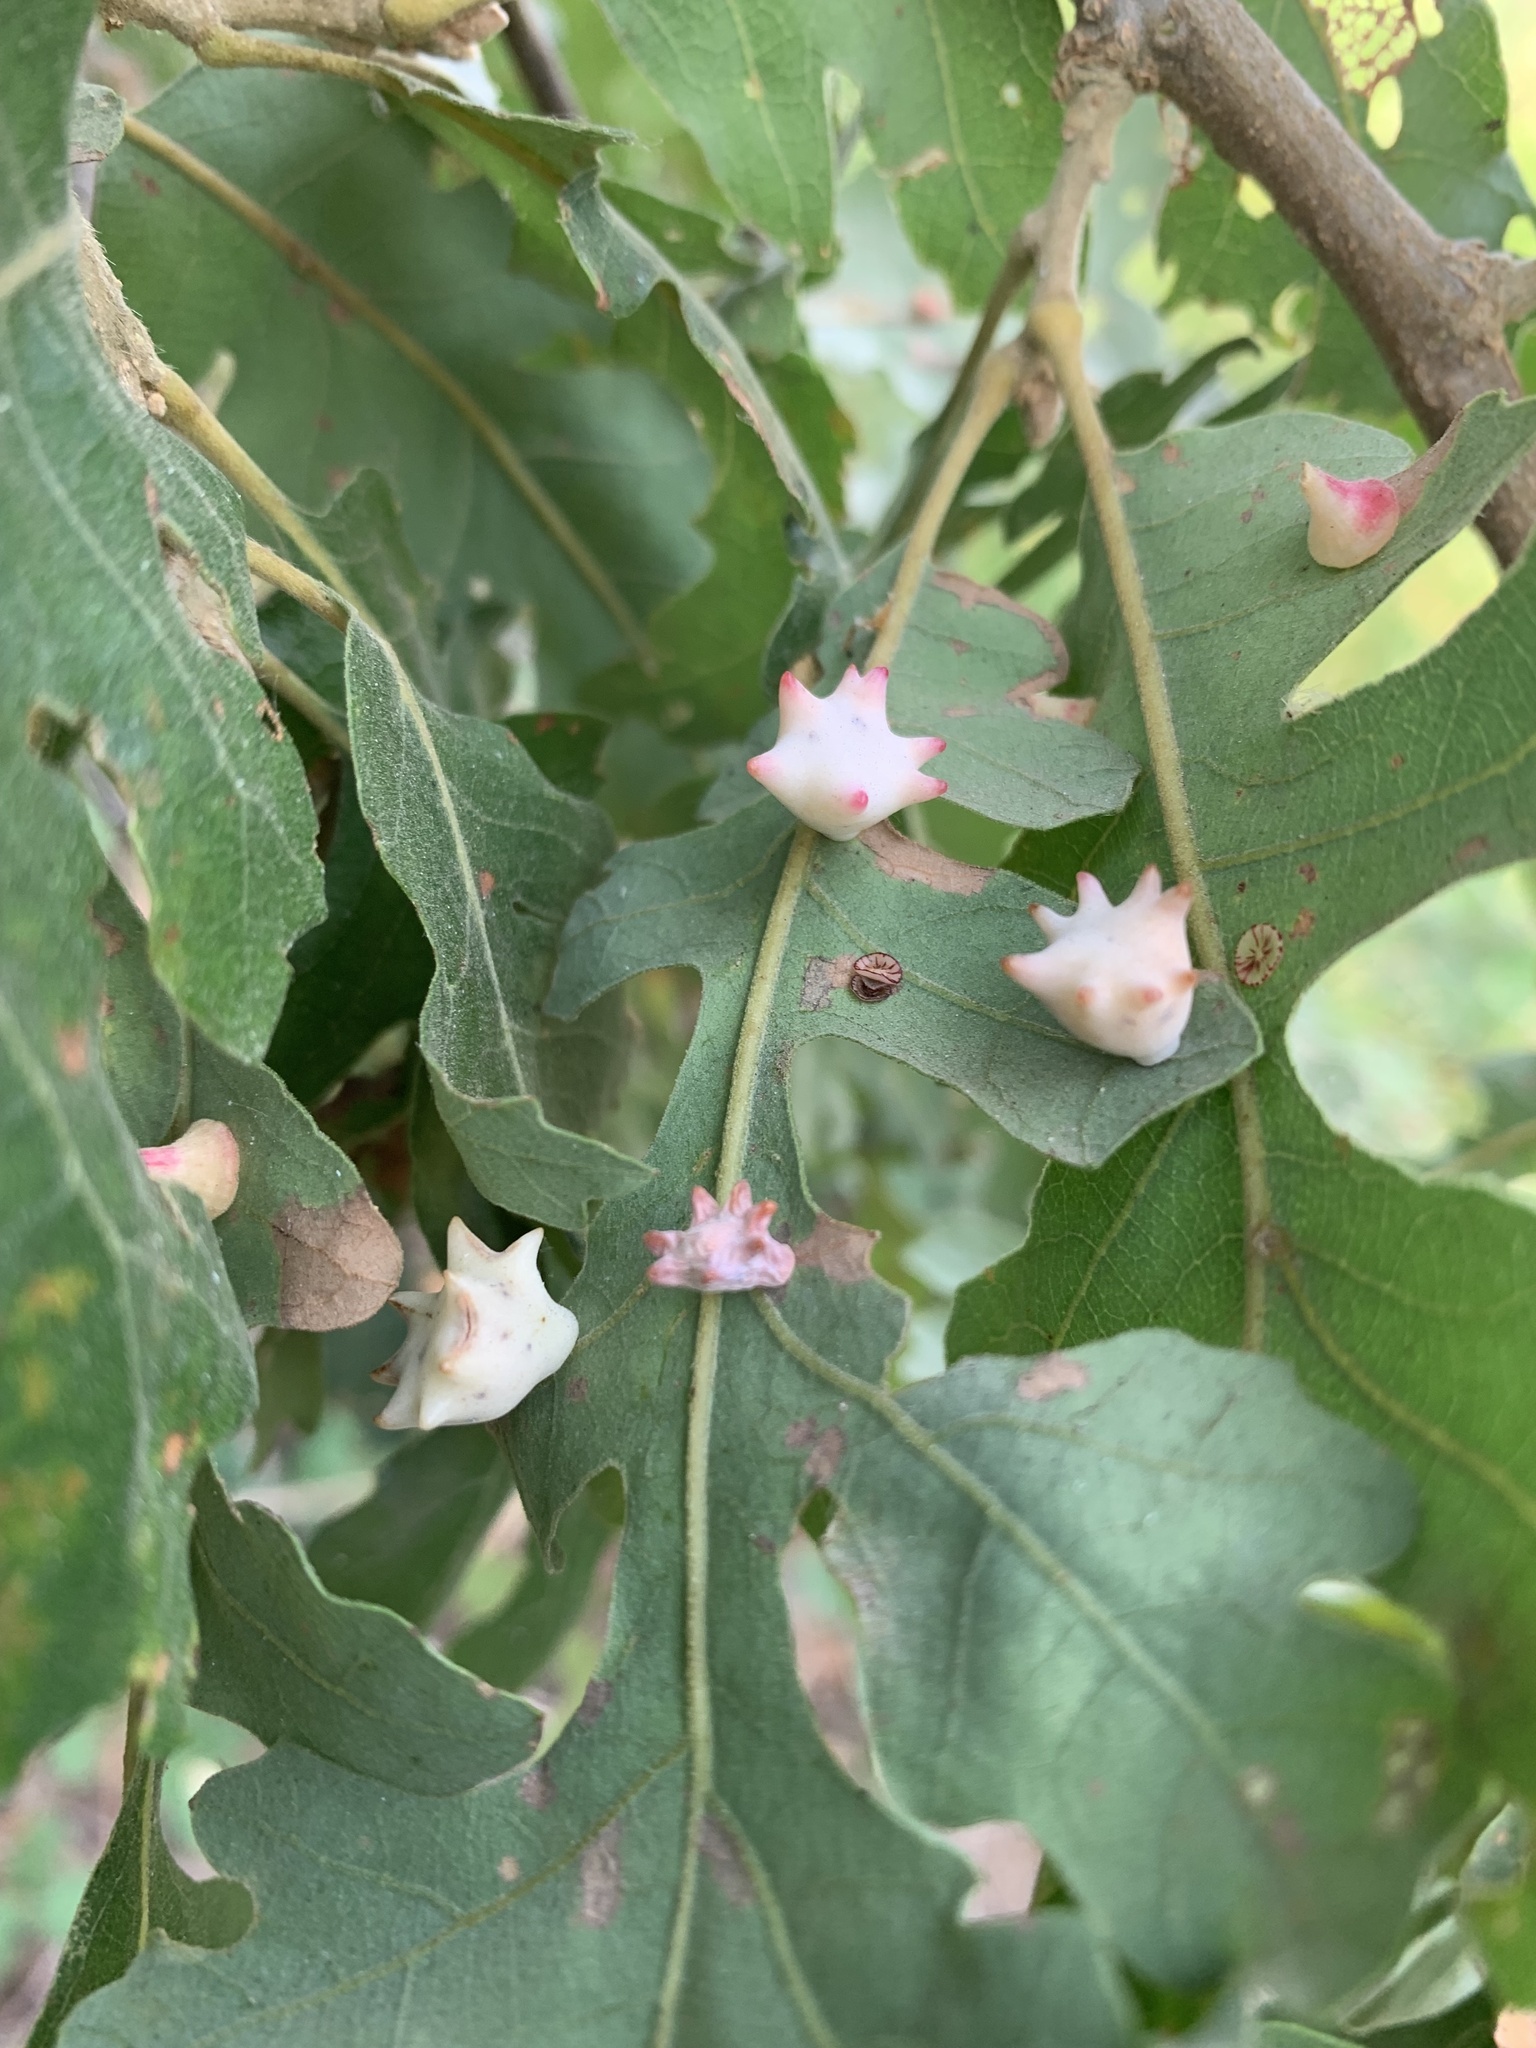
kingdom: Animalia
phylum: Arthropoda
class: Insecta
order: Hymenoptera
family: Cynipidae
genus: Cynips
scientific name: Cynips douglasi
